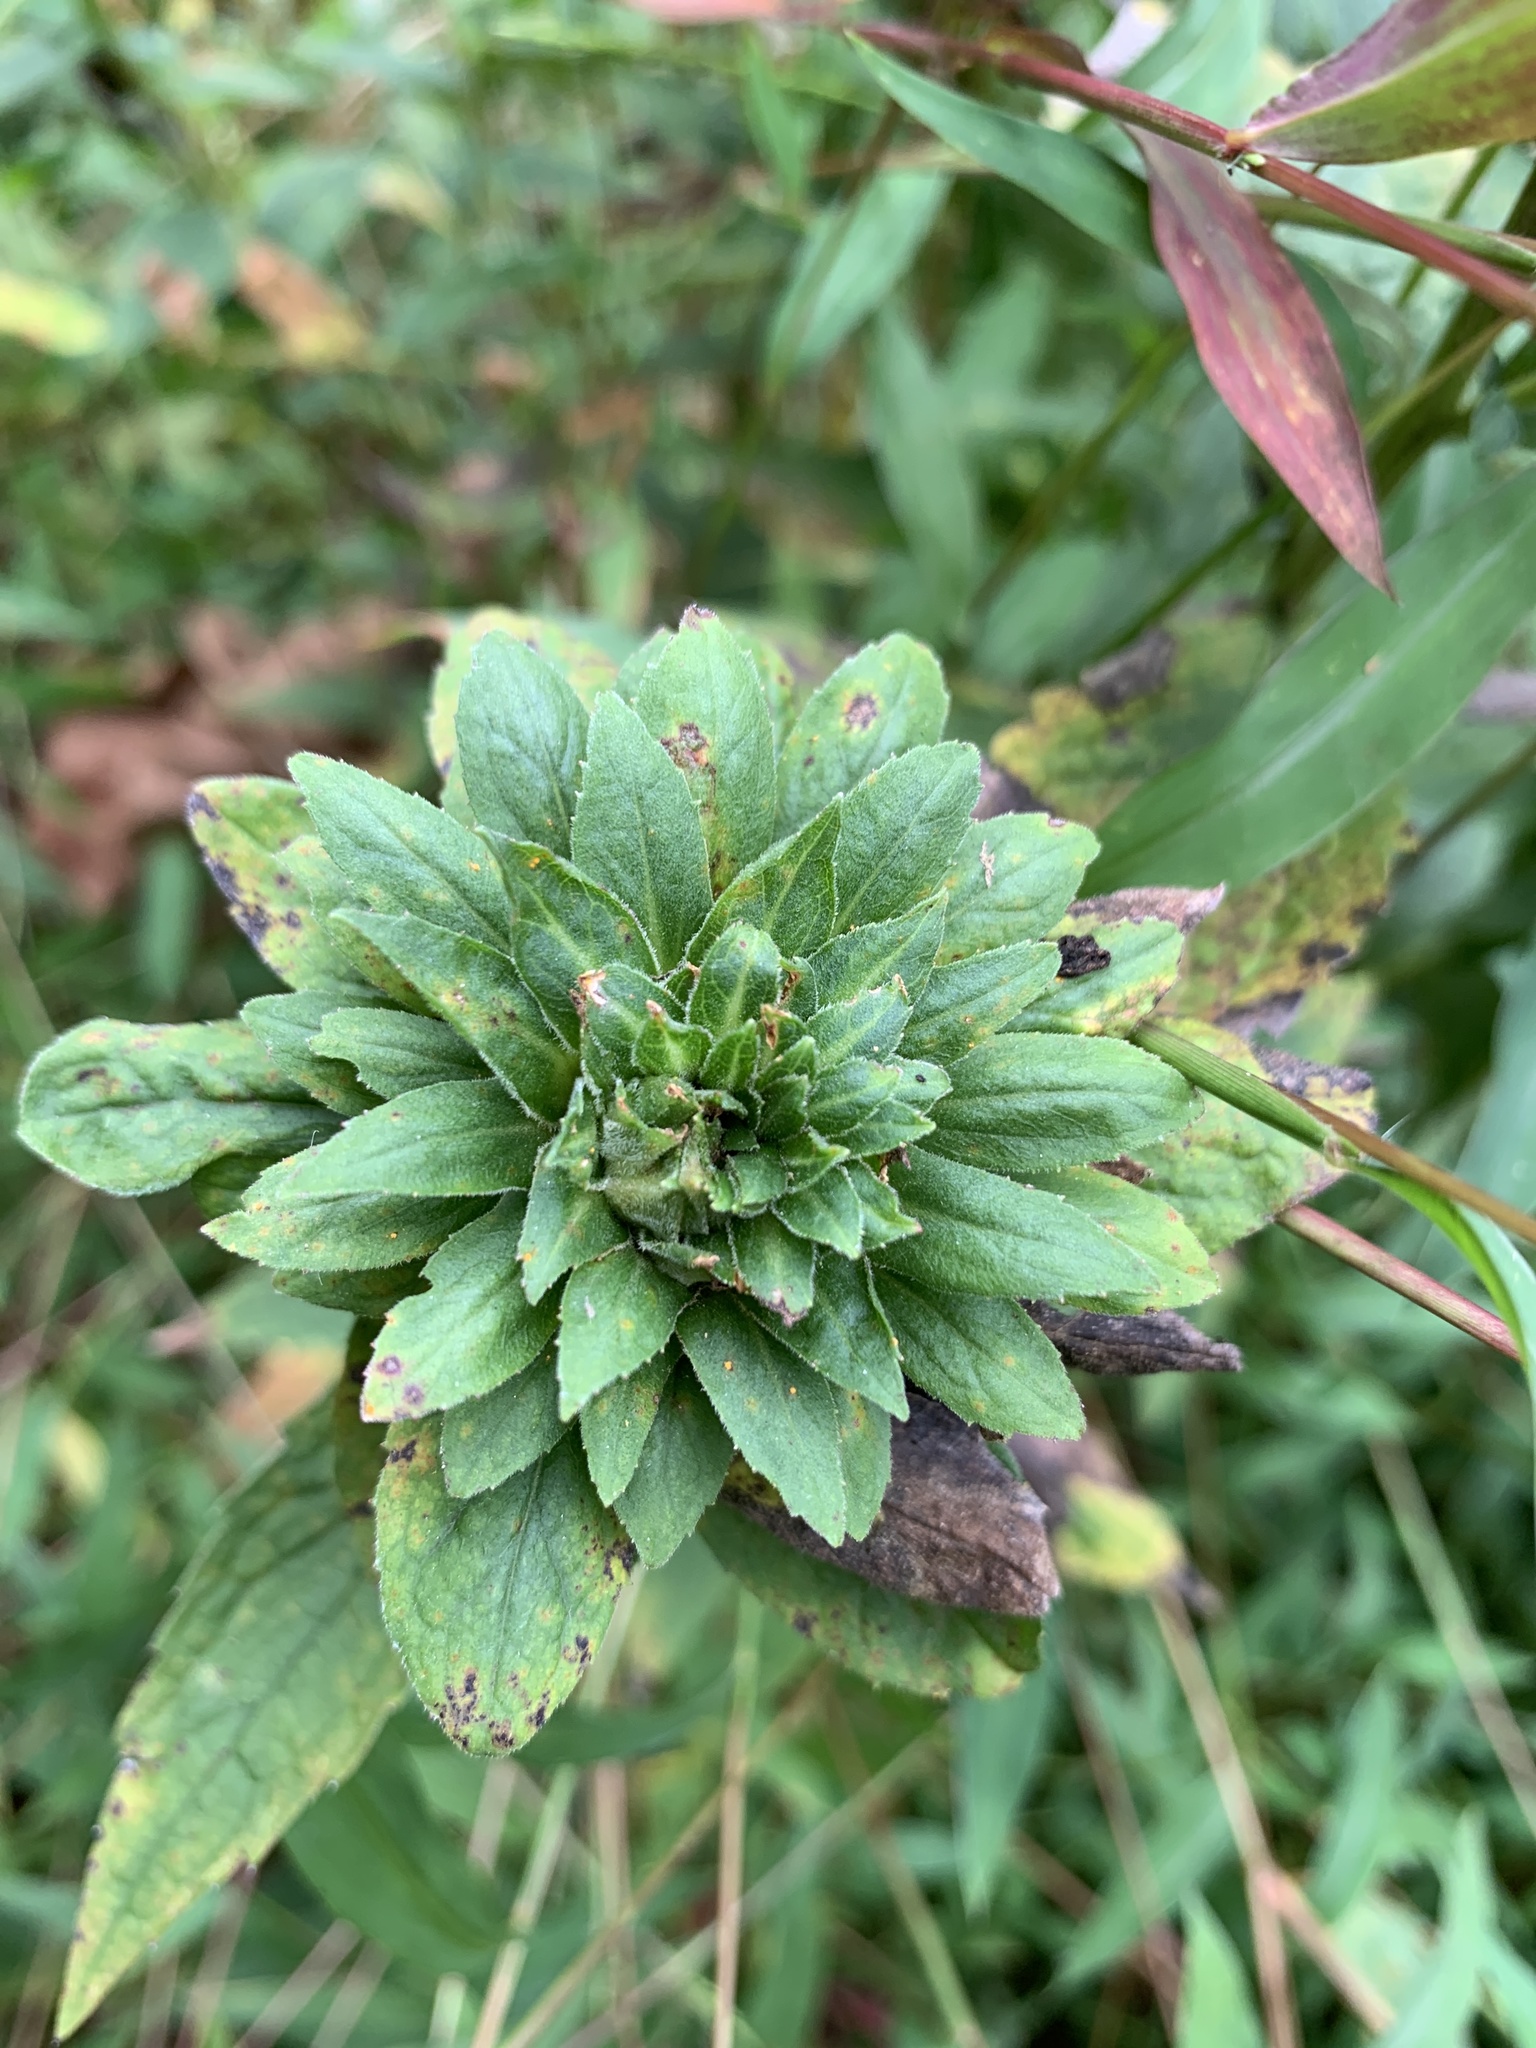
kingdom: Animalia
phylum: Arthropoda
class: Insecta
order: Diptera
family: Tephritidae
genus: Procecidochares
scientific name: Procecidochares atra
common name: Goldenrod brussels sprout gall fly
